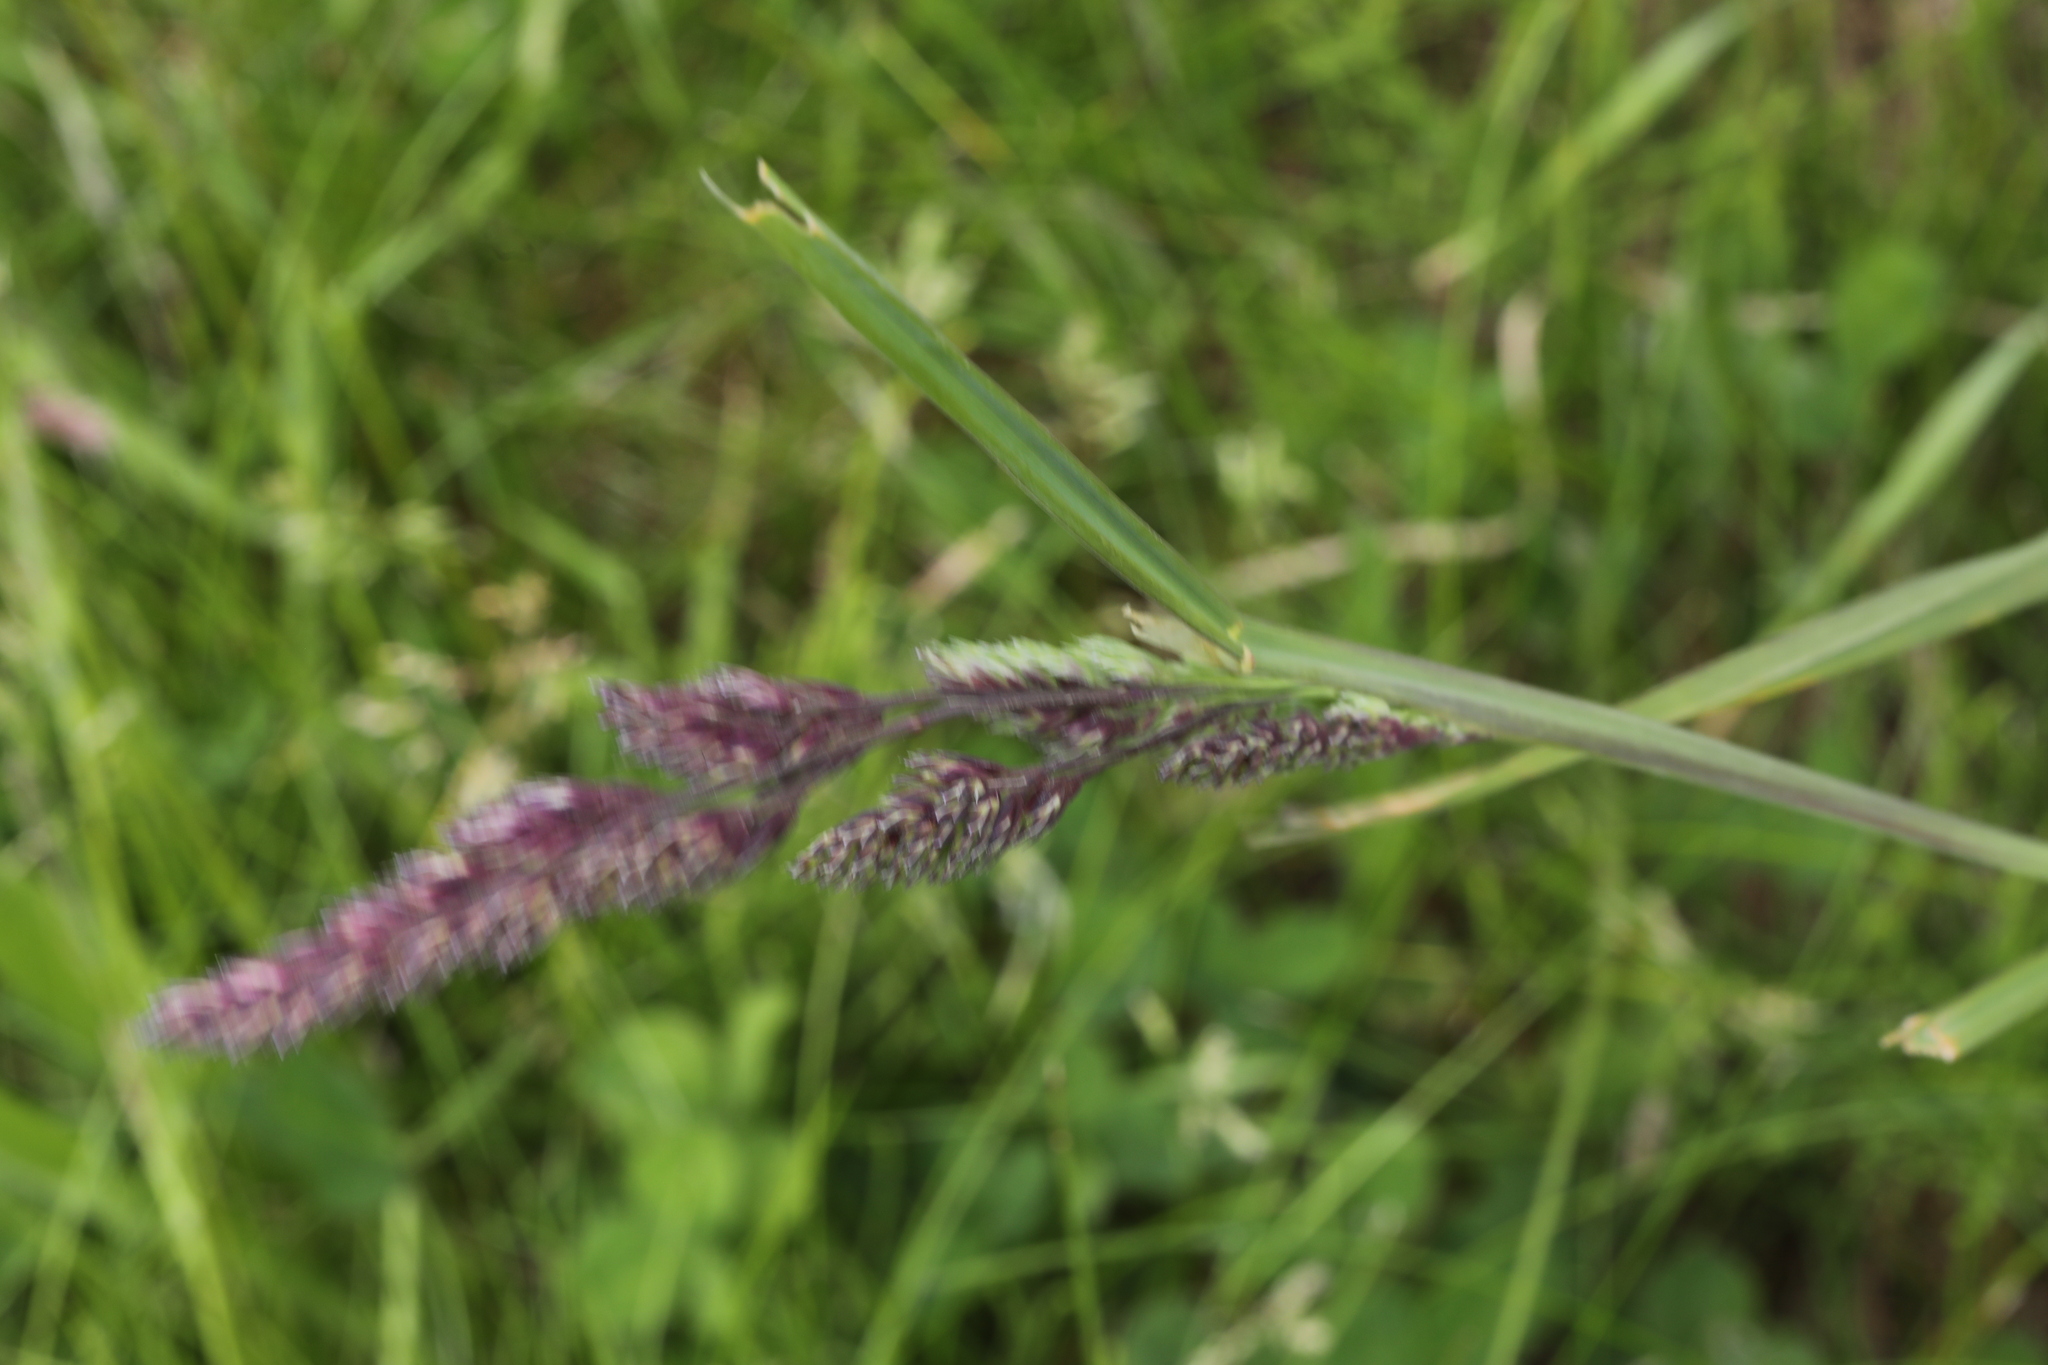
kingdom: Plantae
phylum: Tracheophyta
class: Liliopsida
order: Poales
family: Poaceae
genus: Dactylis
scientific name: Dactylis glomerata
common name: Orchardgrass
